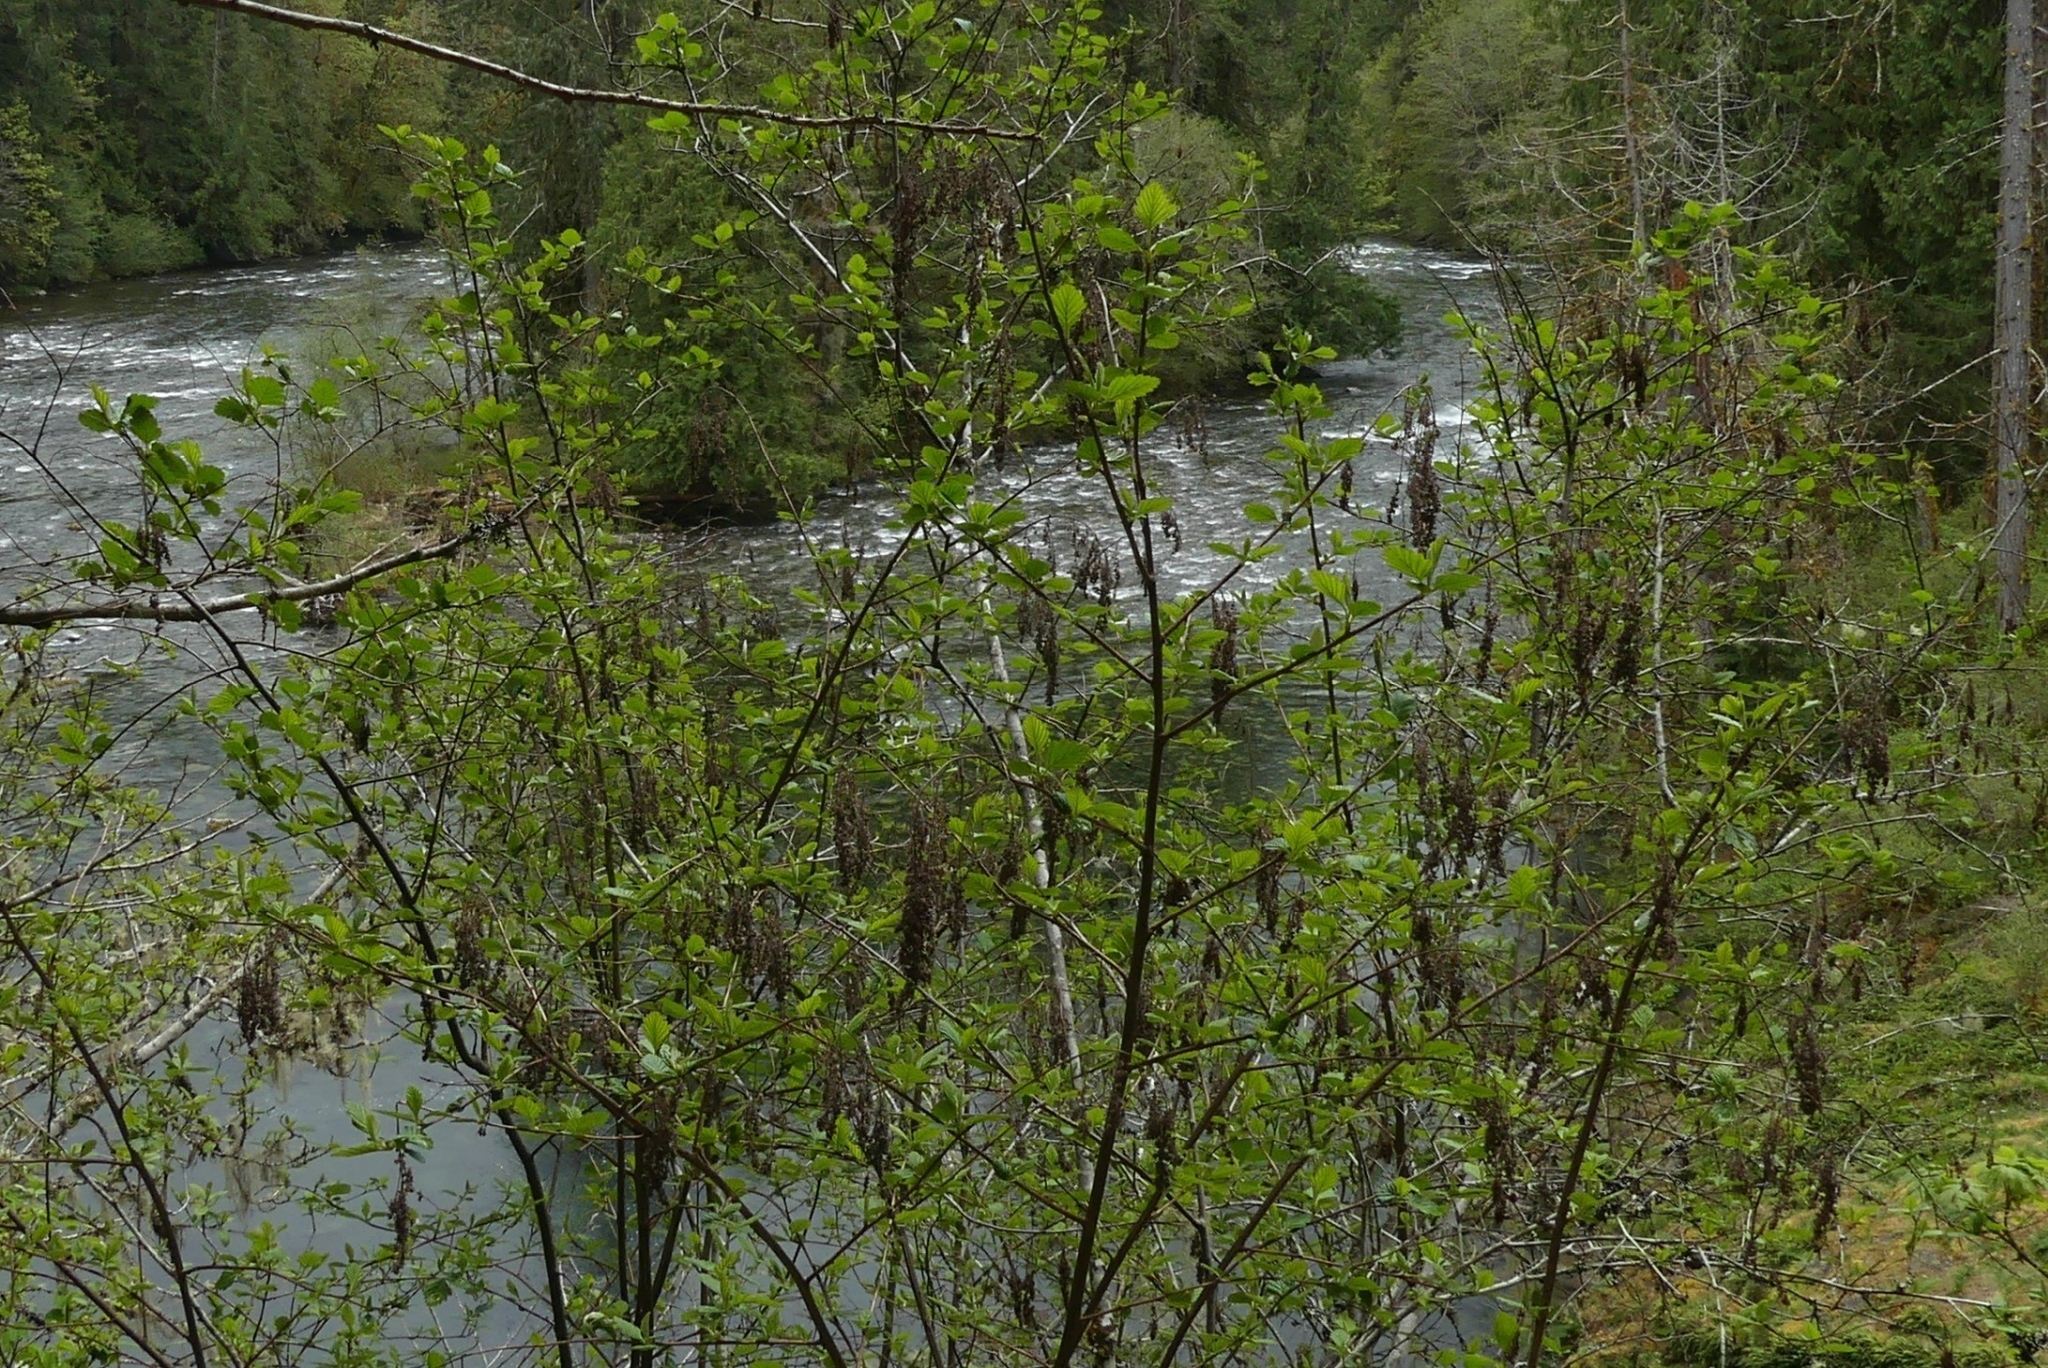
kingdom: Plantae
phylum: Tracheophyta
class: Magnoliopsida
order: Rosales
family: Rosaceae
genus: Holodiscus
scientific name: Holodiscus discolor
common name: Oceanspray
